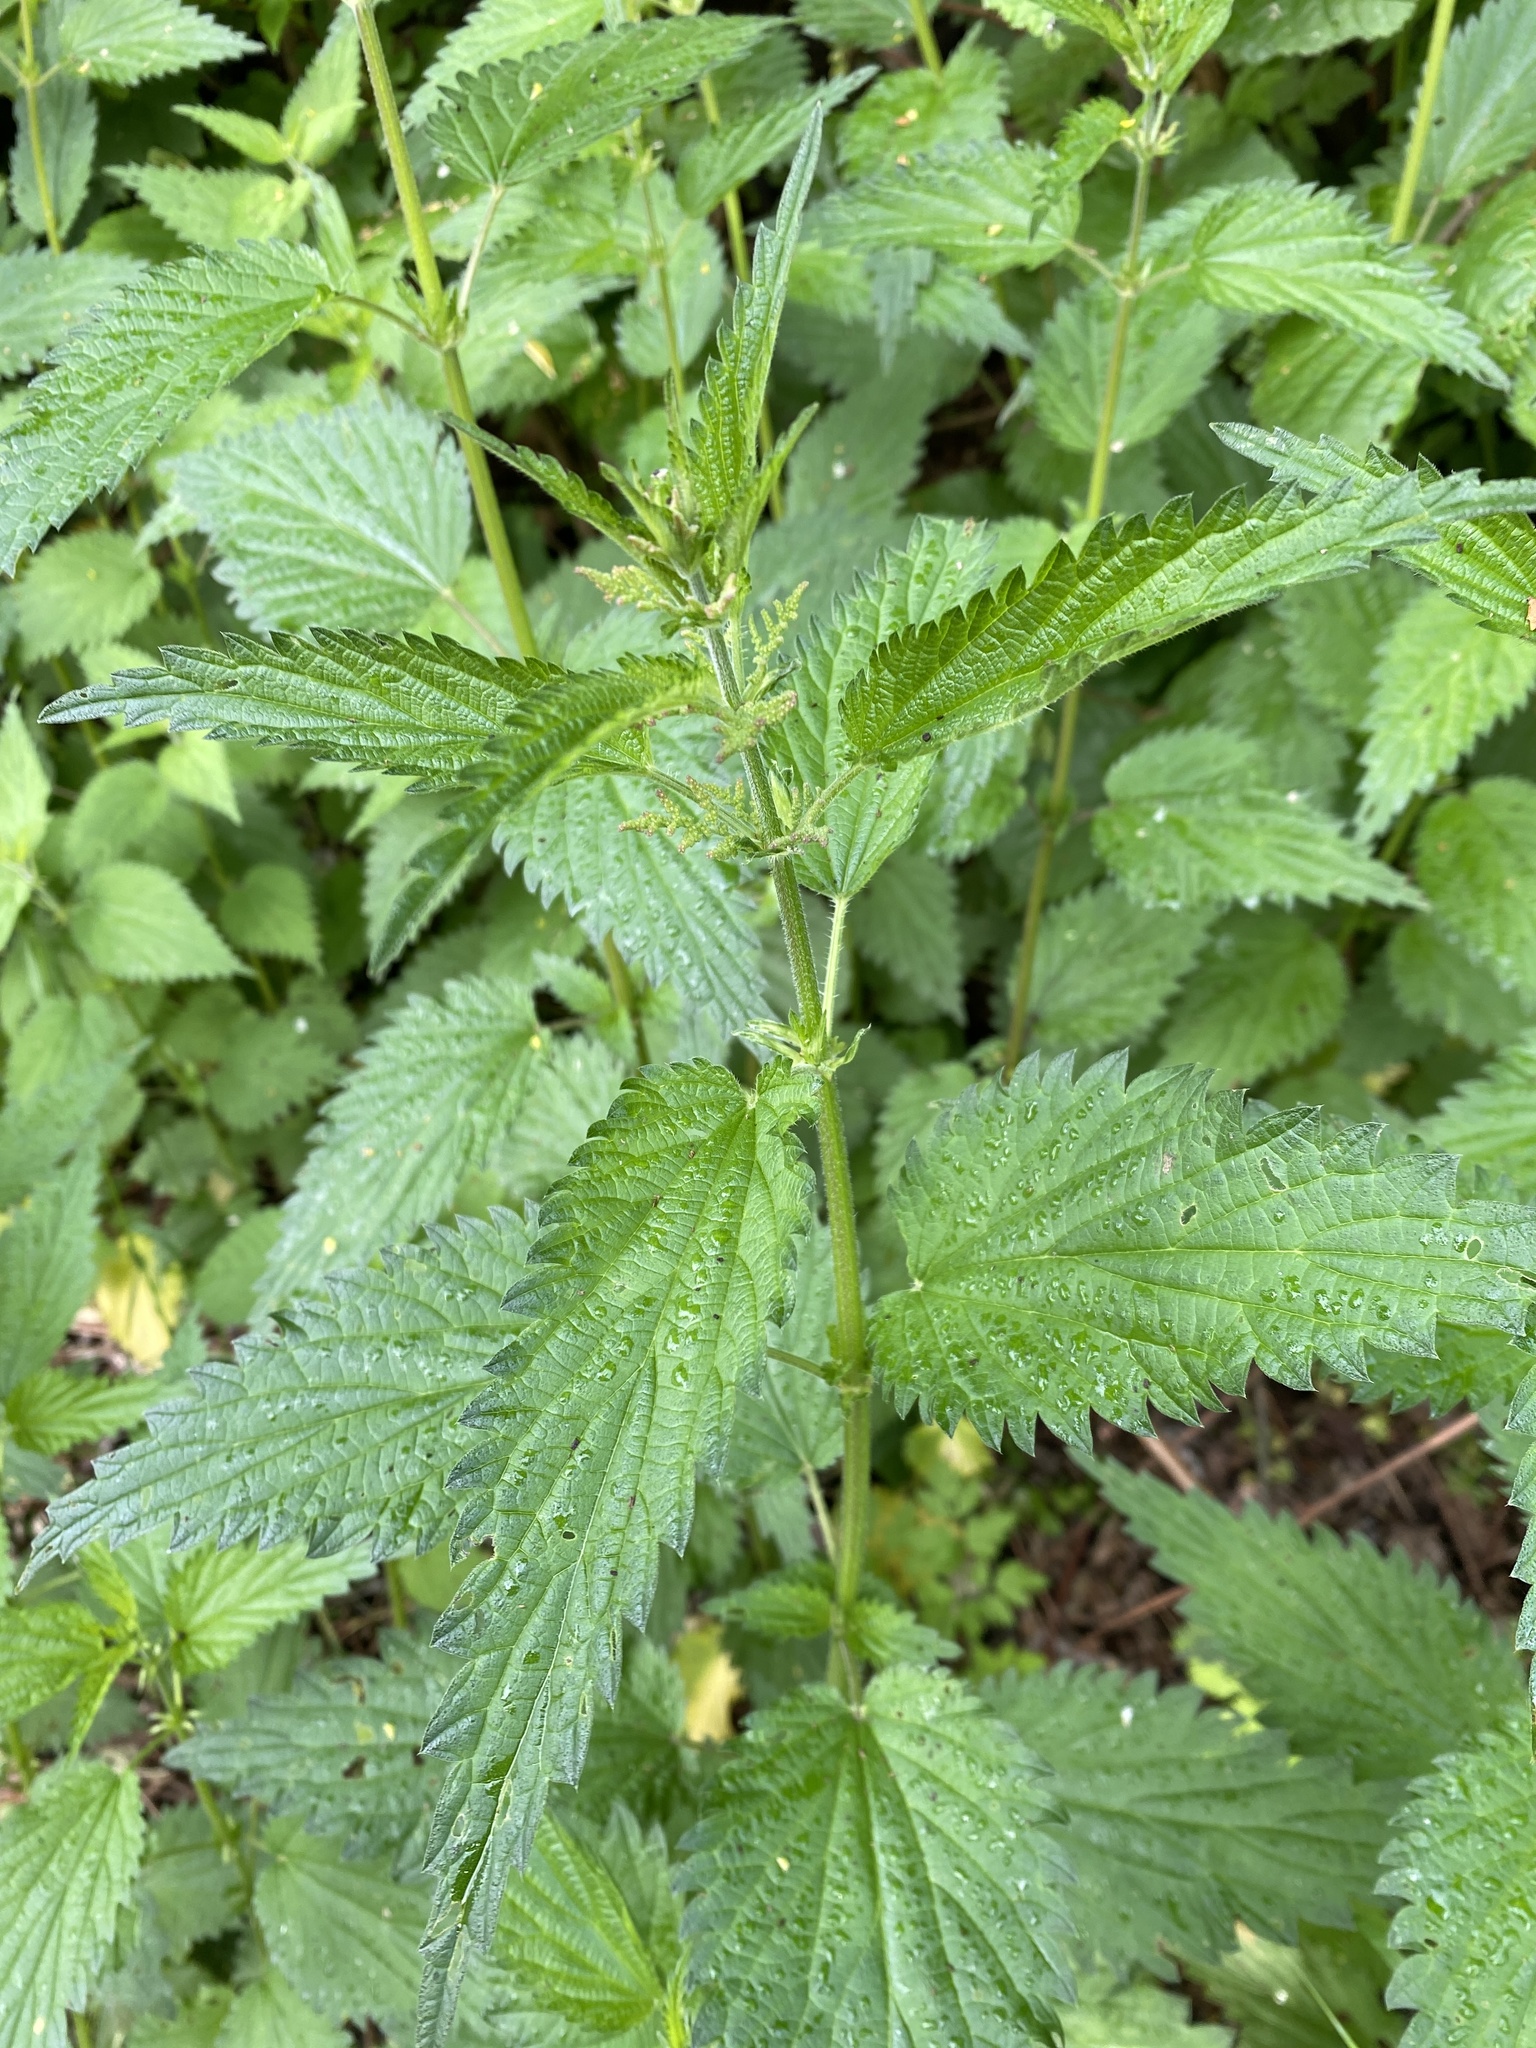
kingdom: Plantae
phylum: Tracheophyta
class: Magnoliopsida
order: Rosales
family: Urticaceae
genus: Urtica
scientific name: Urtica dioica
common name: Common nettle
